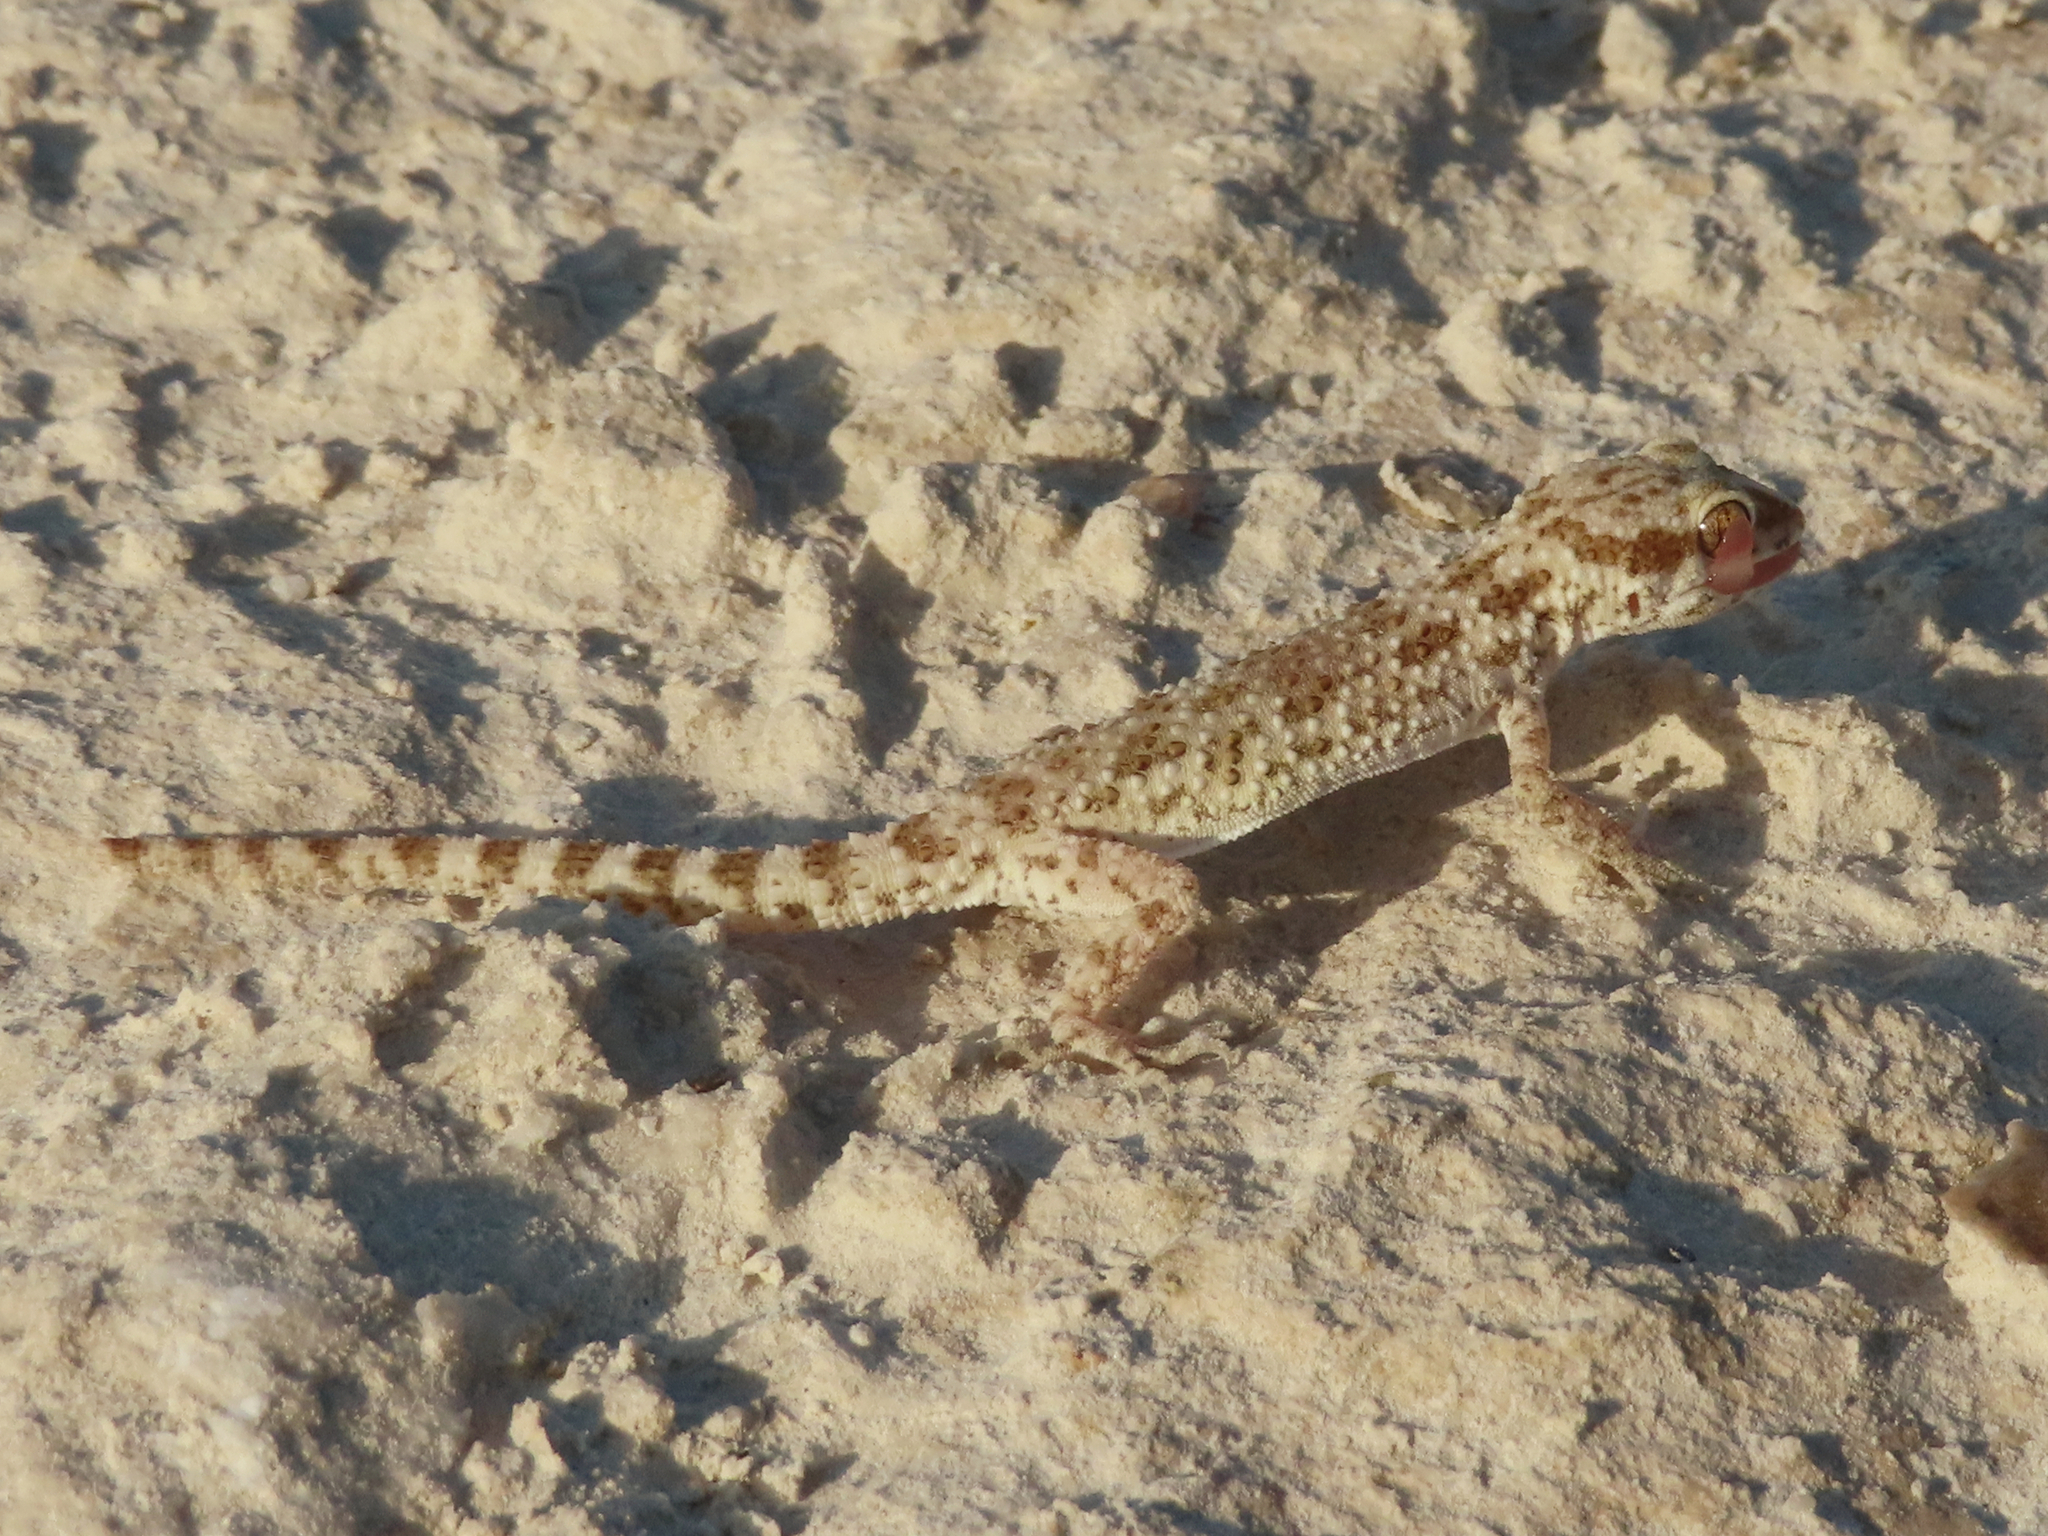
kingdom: Animalia
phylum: Chordata
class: Squamata
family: Gekkonidae
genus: Bunopus
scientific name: Bunopus tuberculatus
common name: Southern tuberculated gecko
